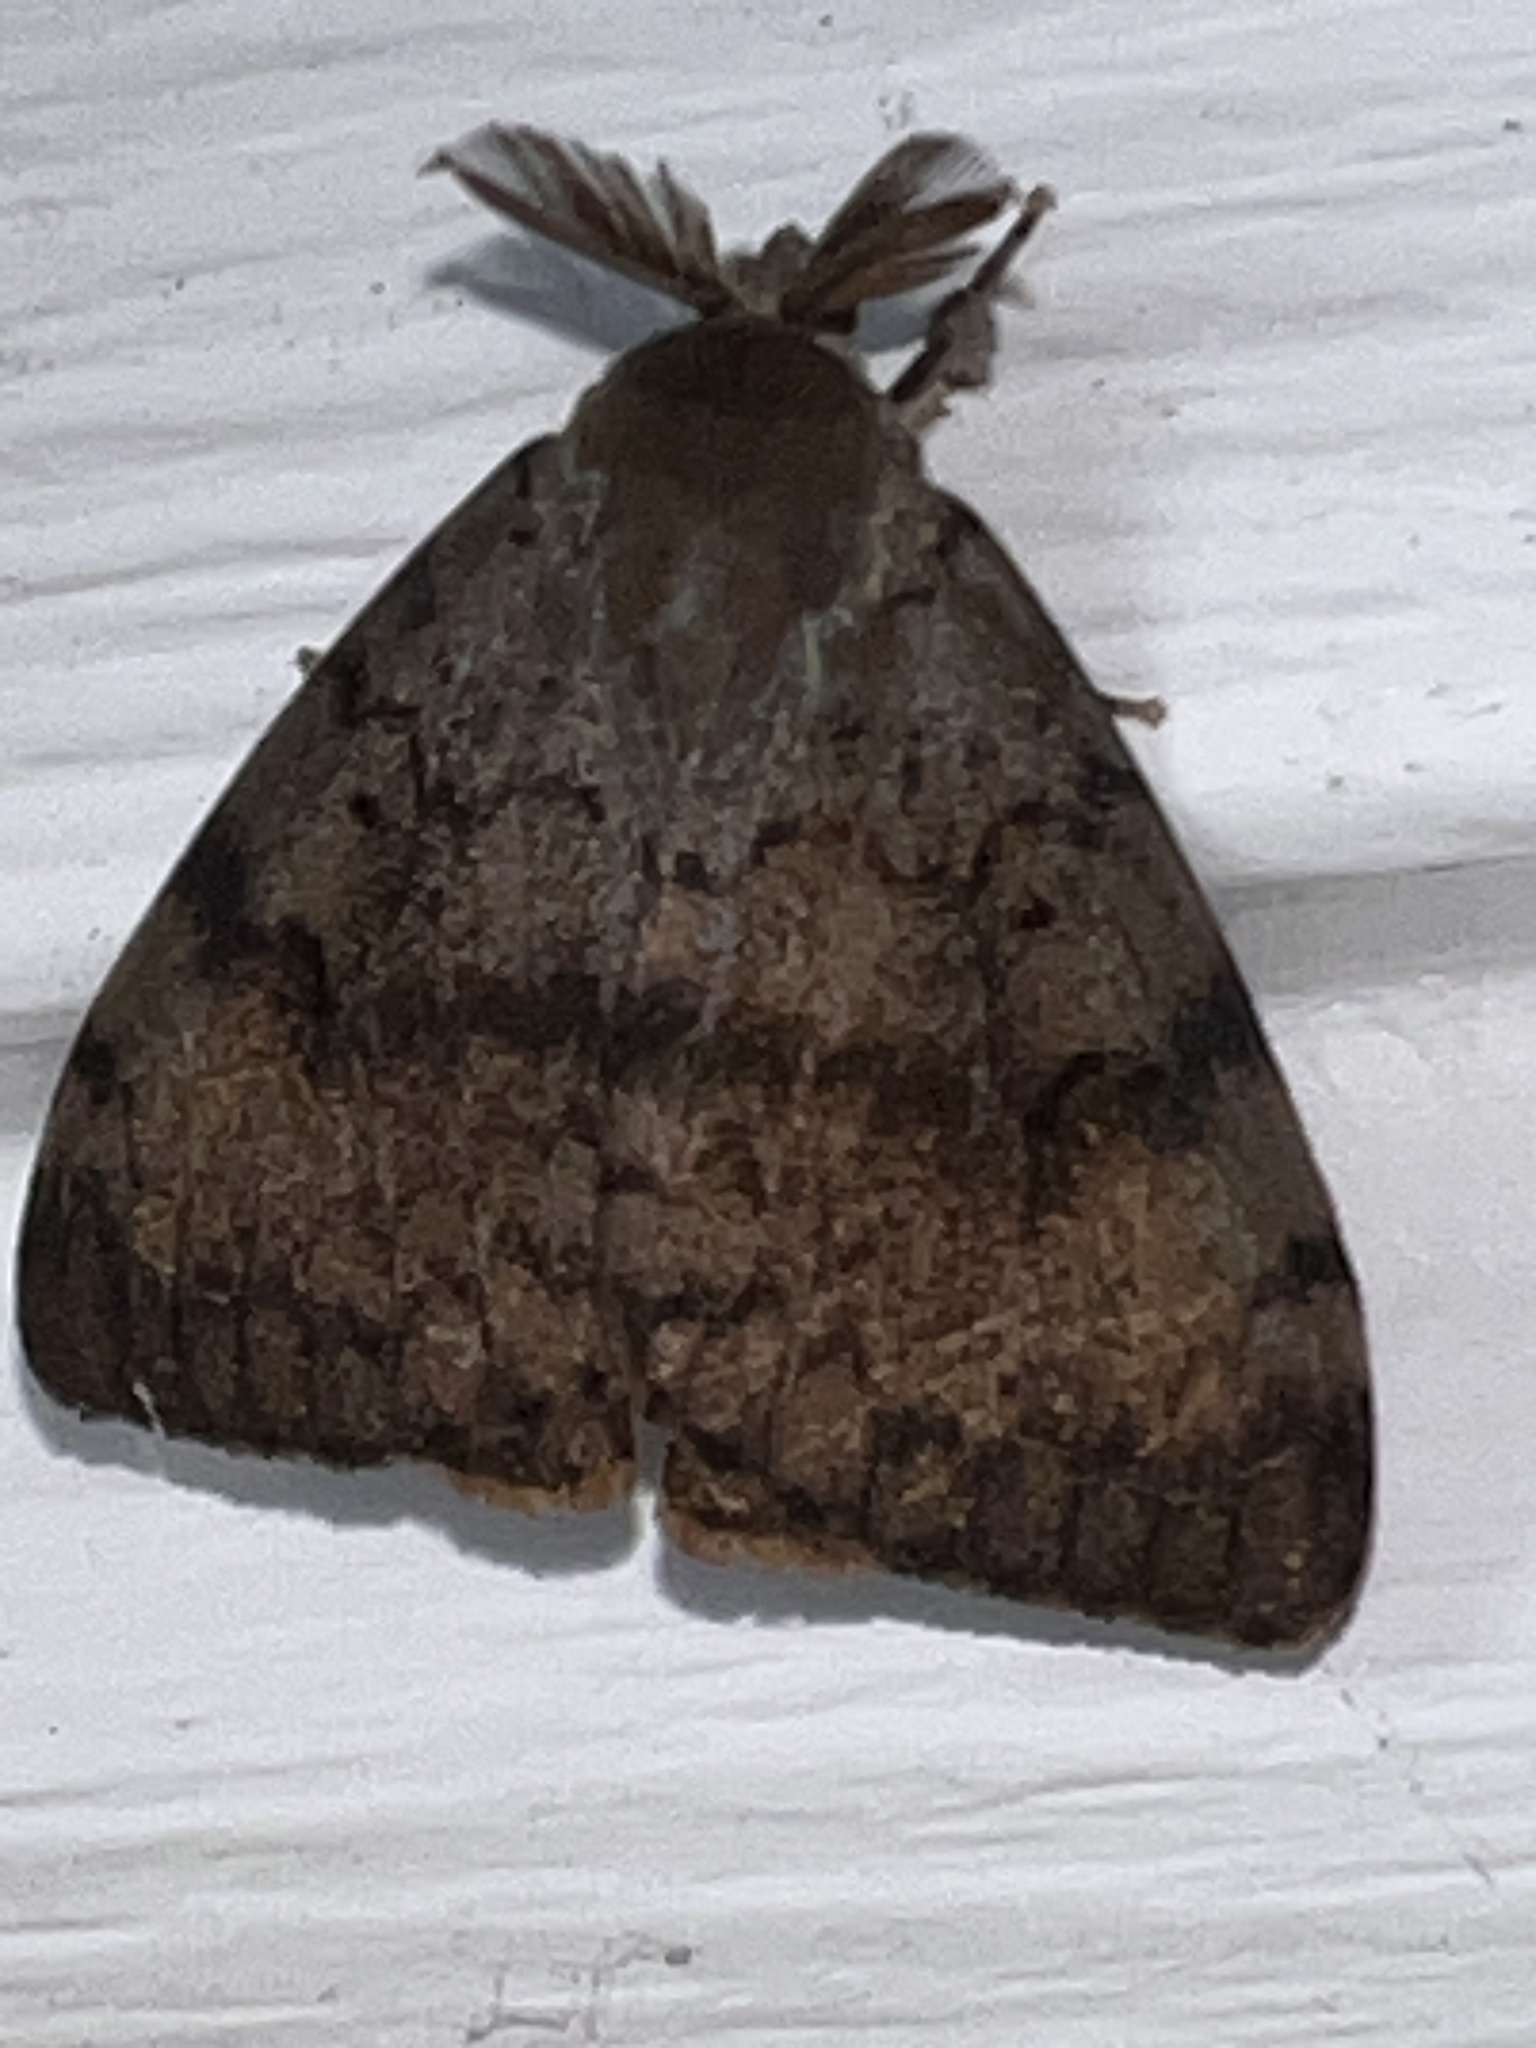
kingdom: Animalia
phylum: Arthropoda
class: Insecta
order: Lepidoptera
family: Erebidae
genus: Lymantria
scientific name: Lymantria dispar
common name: Gypsy moth
